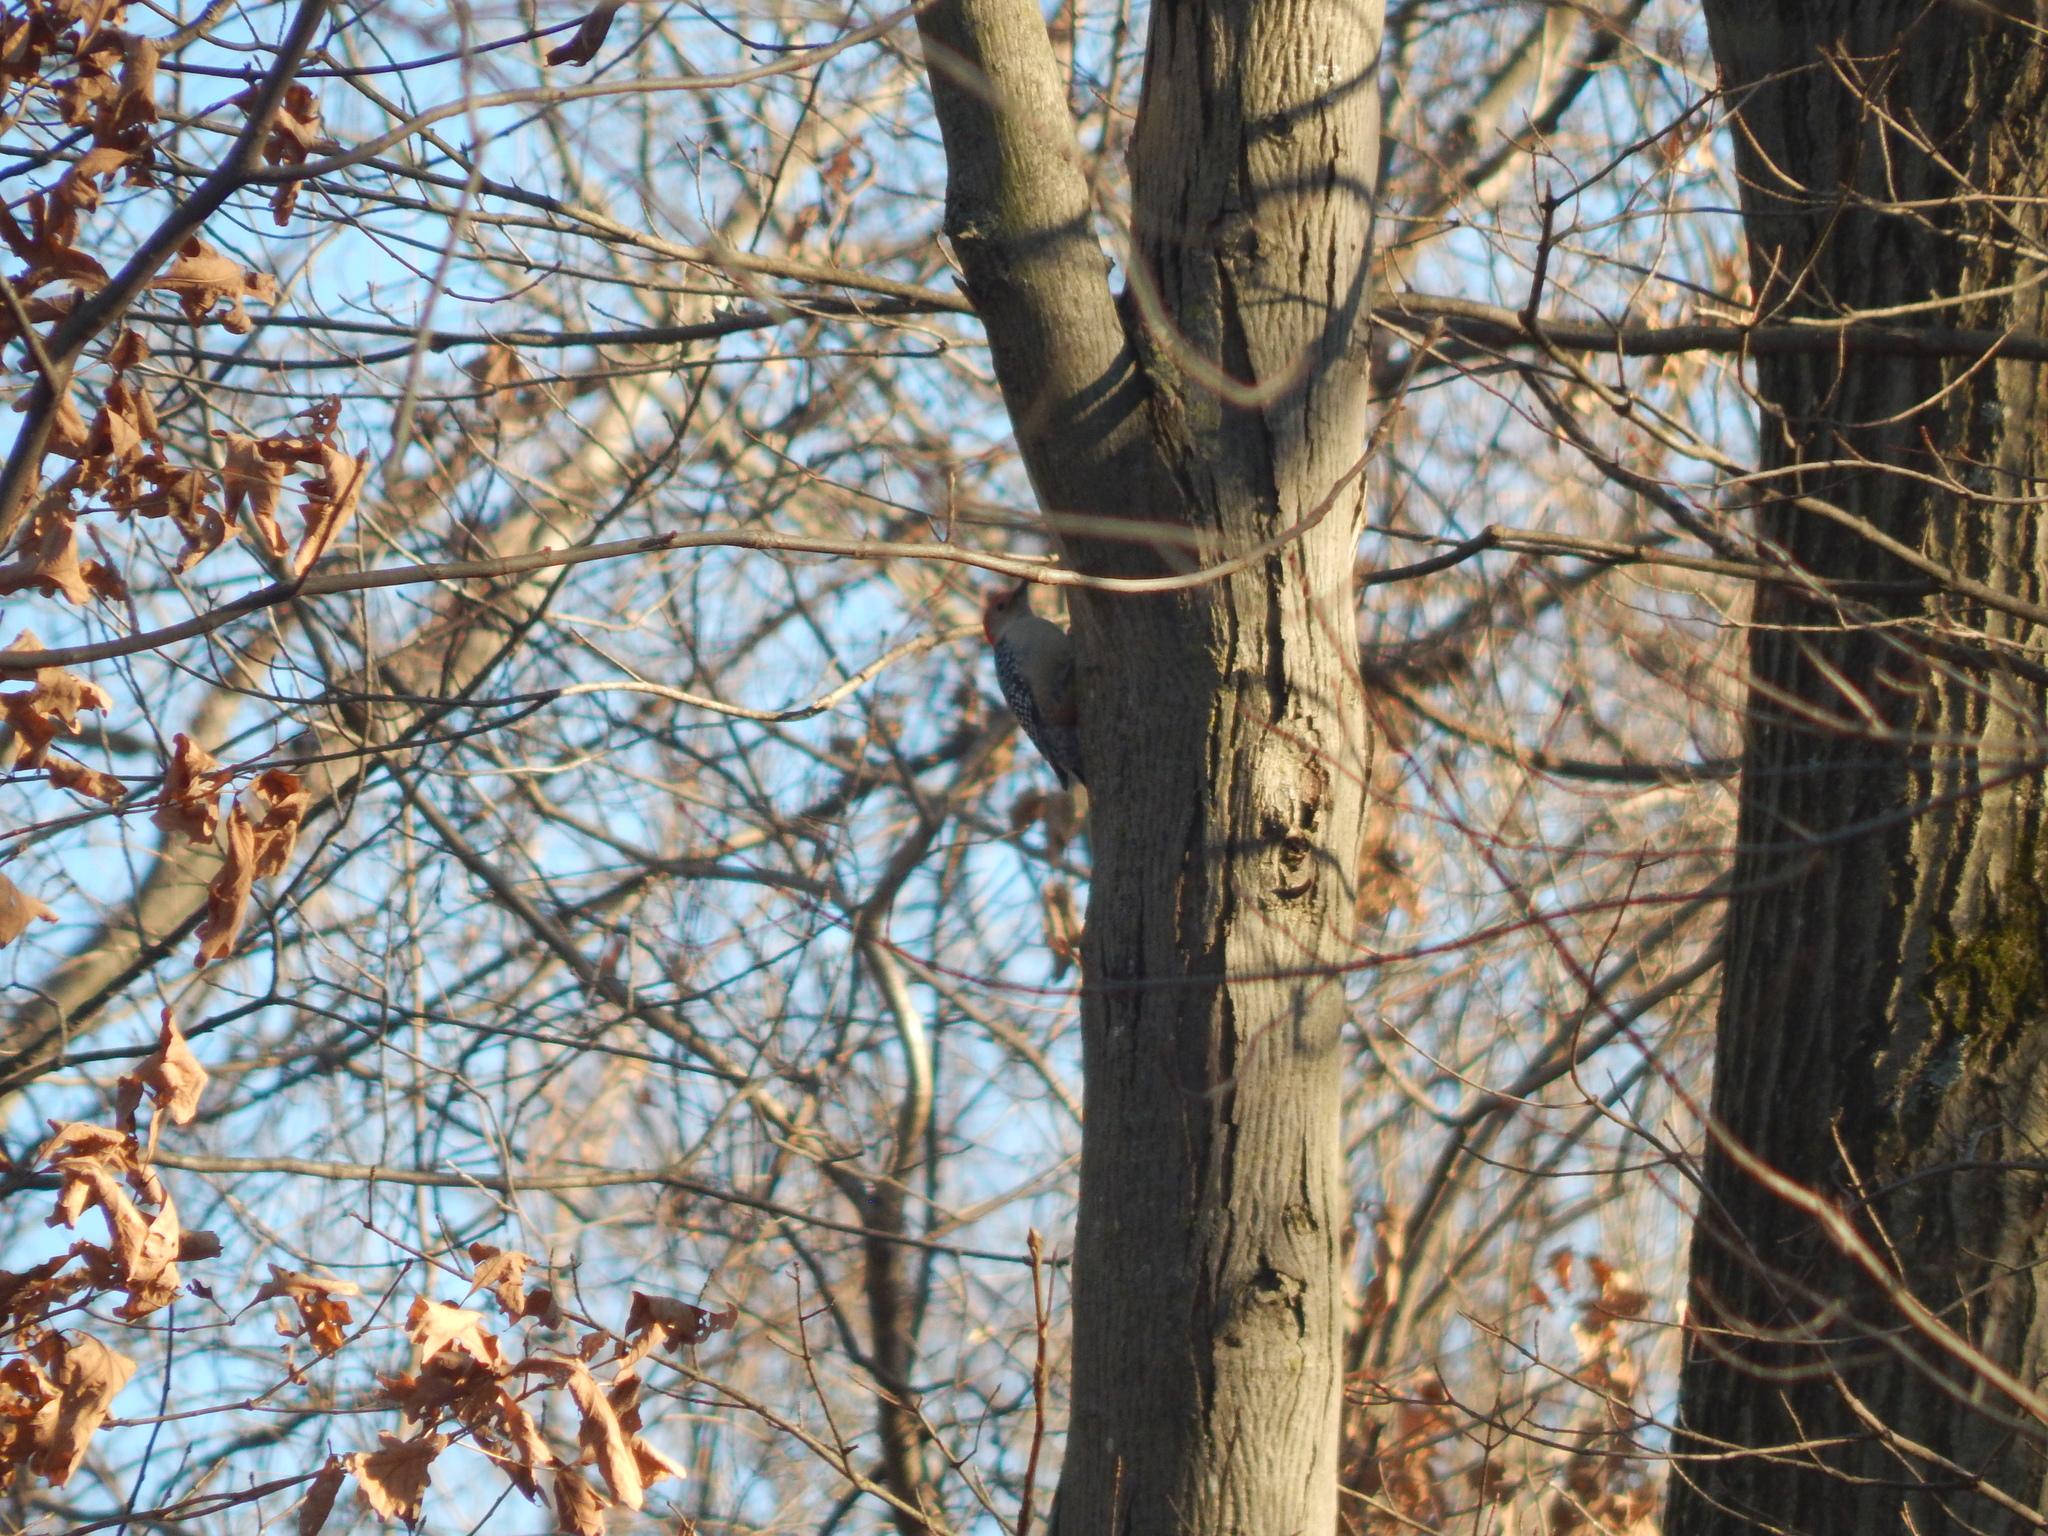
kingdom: Animalia
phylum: Chordata
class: Aves
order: Piciformes
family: Picidae
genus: Melanerpes
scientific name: Melanerpes carolinus
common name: Red-bellied woodpecker
